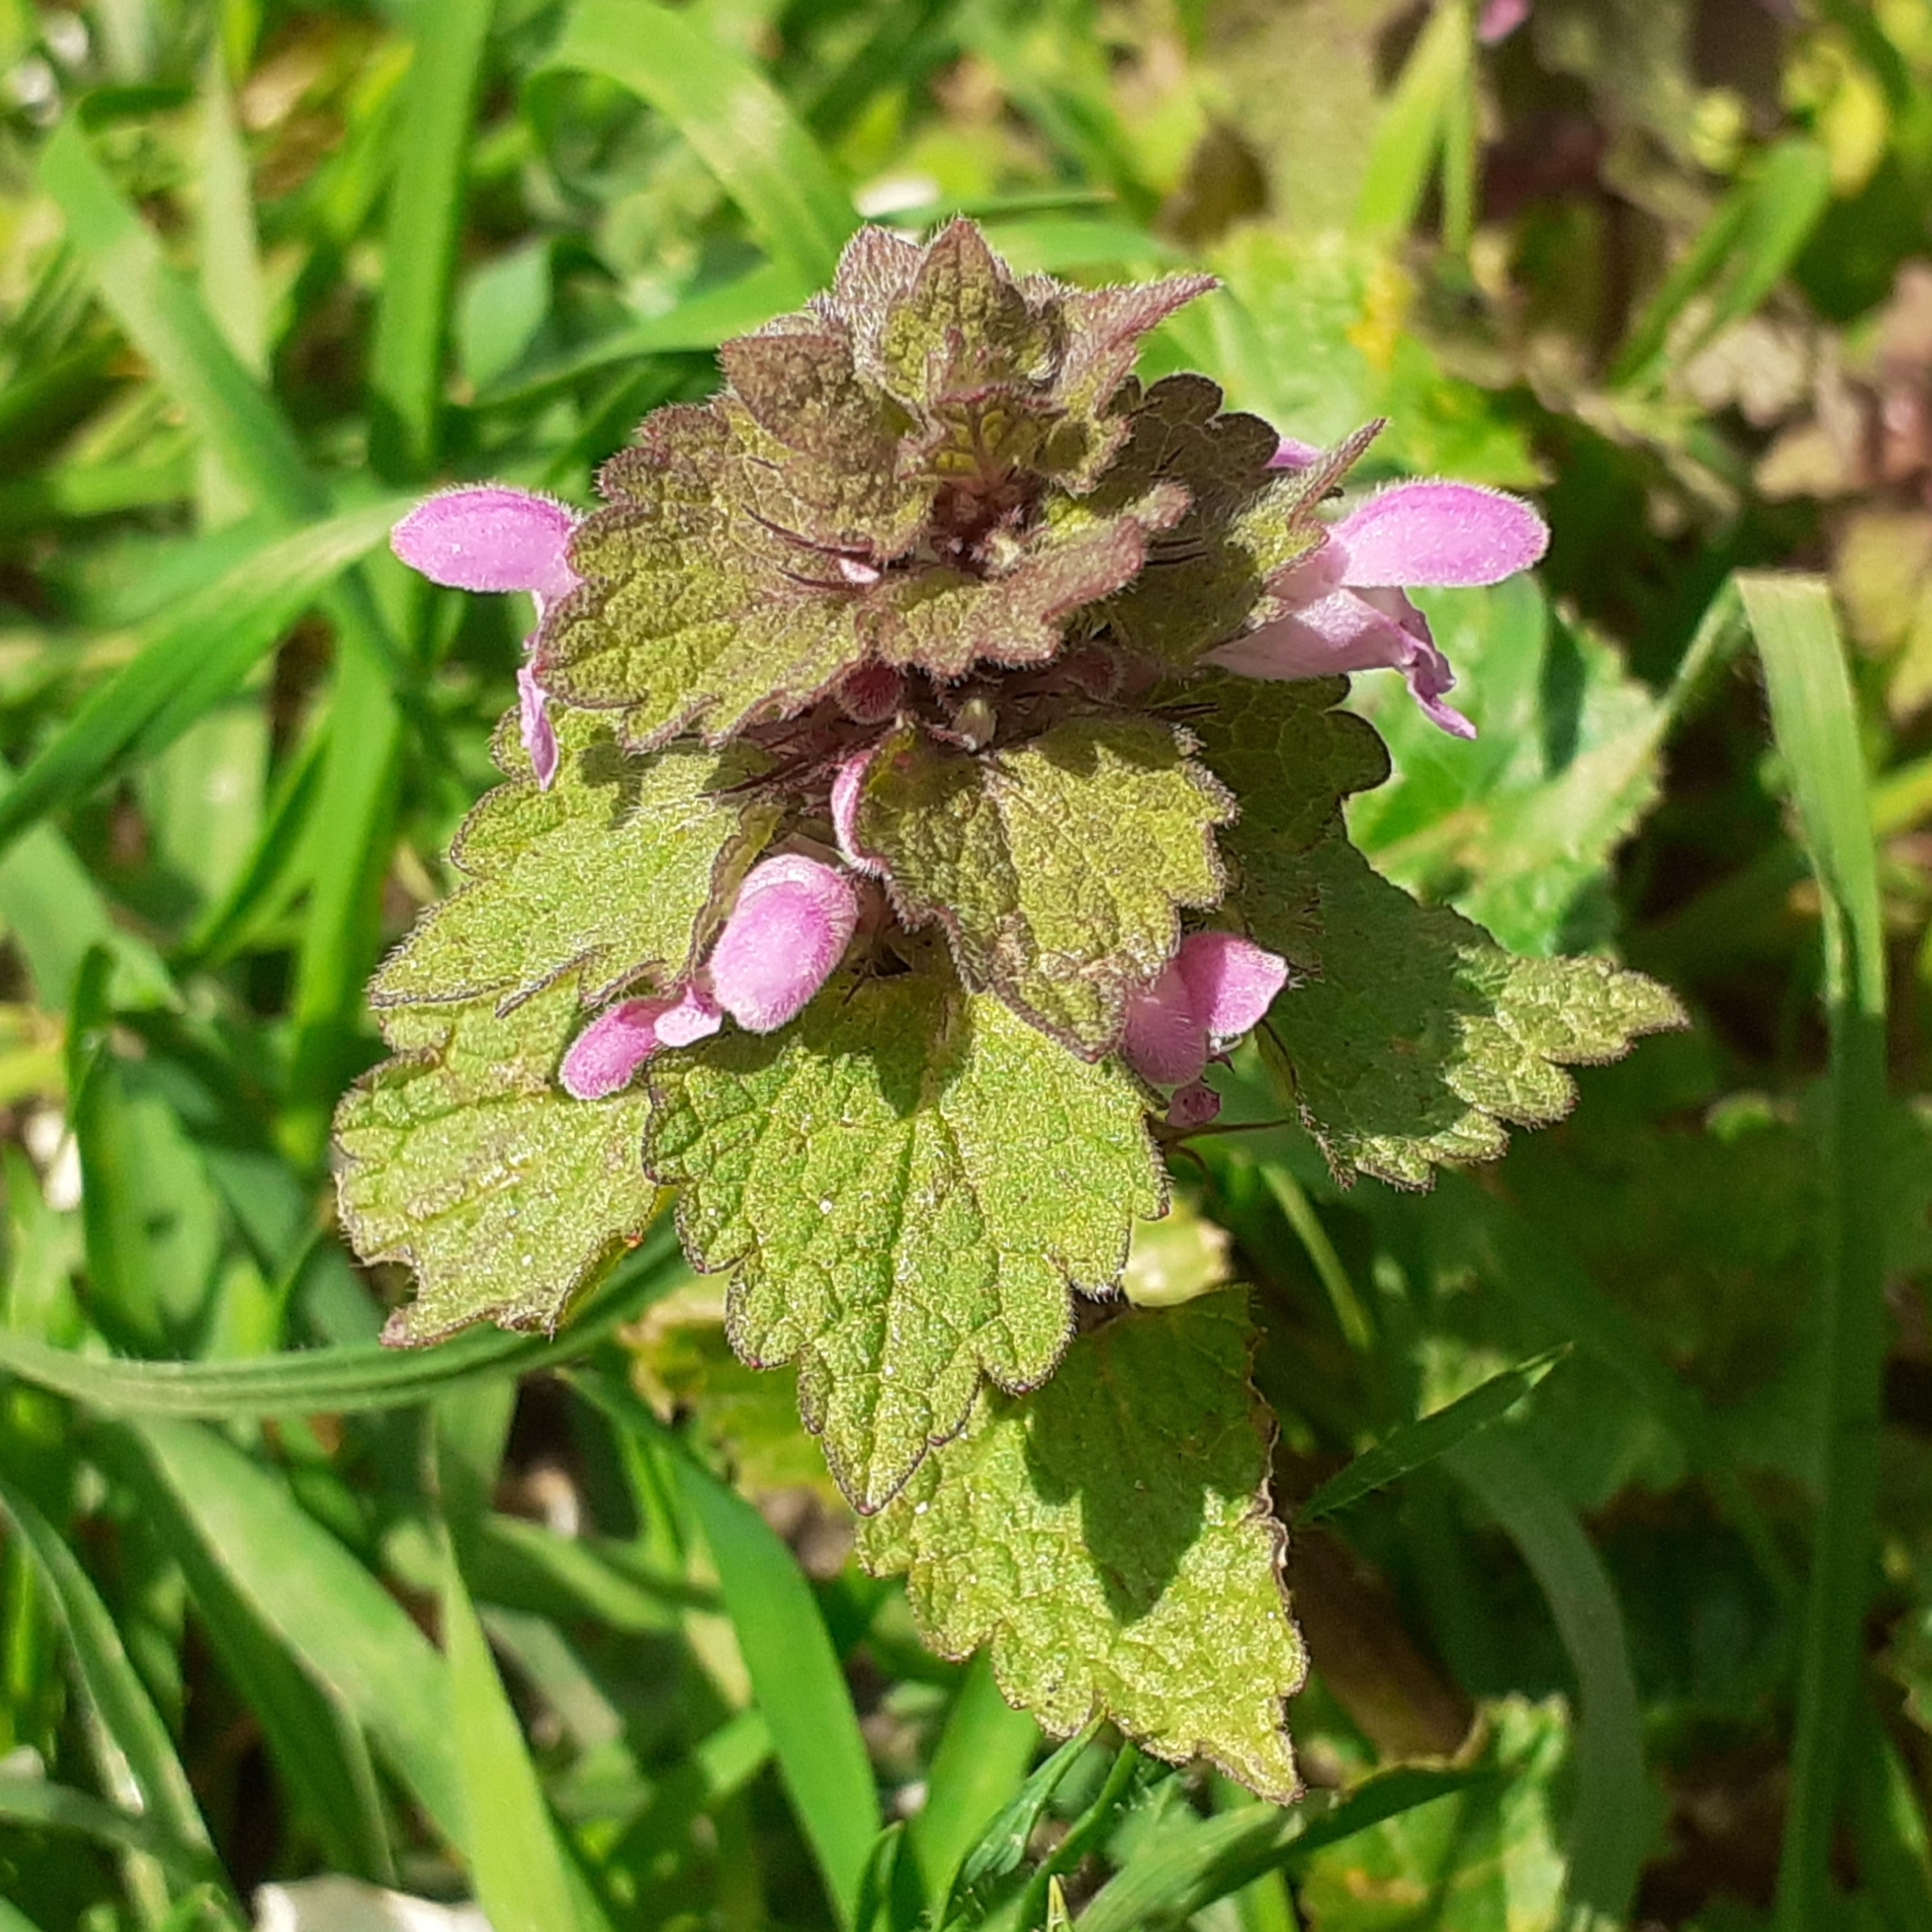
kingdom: Plantae
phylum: Tracheophyta
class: Magnoliopsida
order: Lamiales
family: Lamiaceae
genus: Lamium
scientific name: Lamium purpureum
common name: Red dead-nettle
